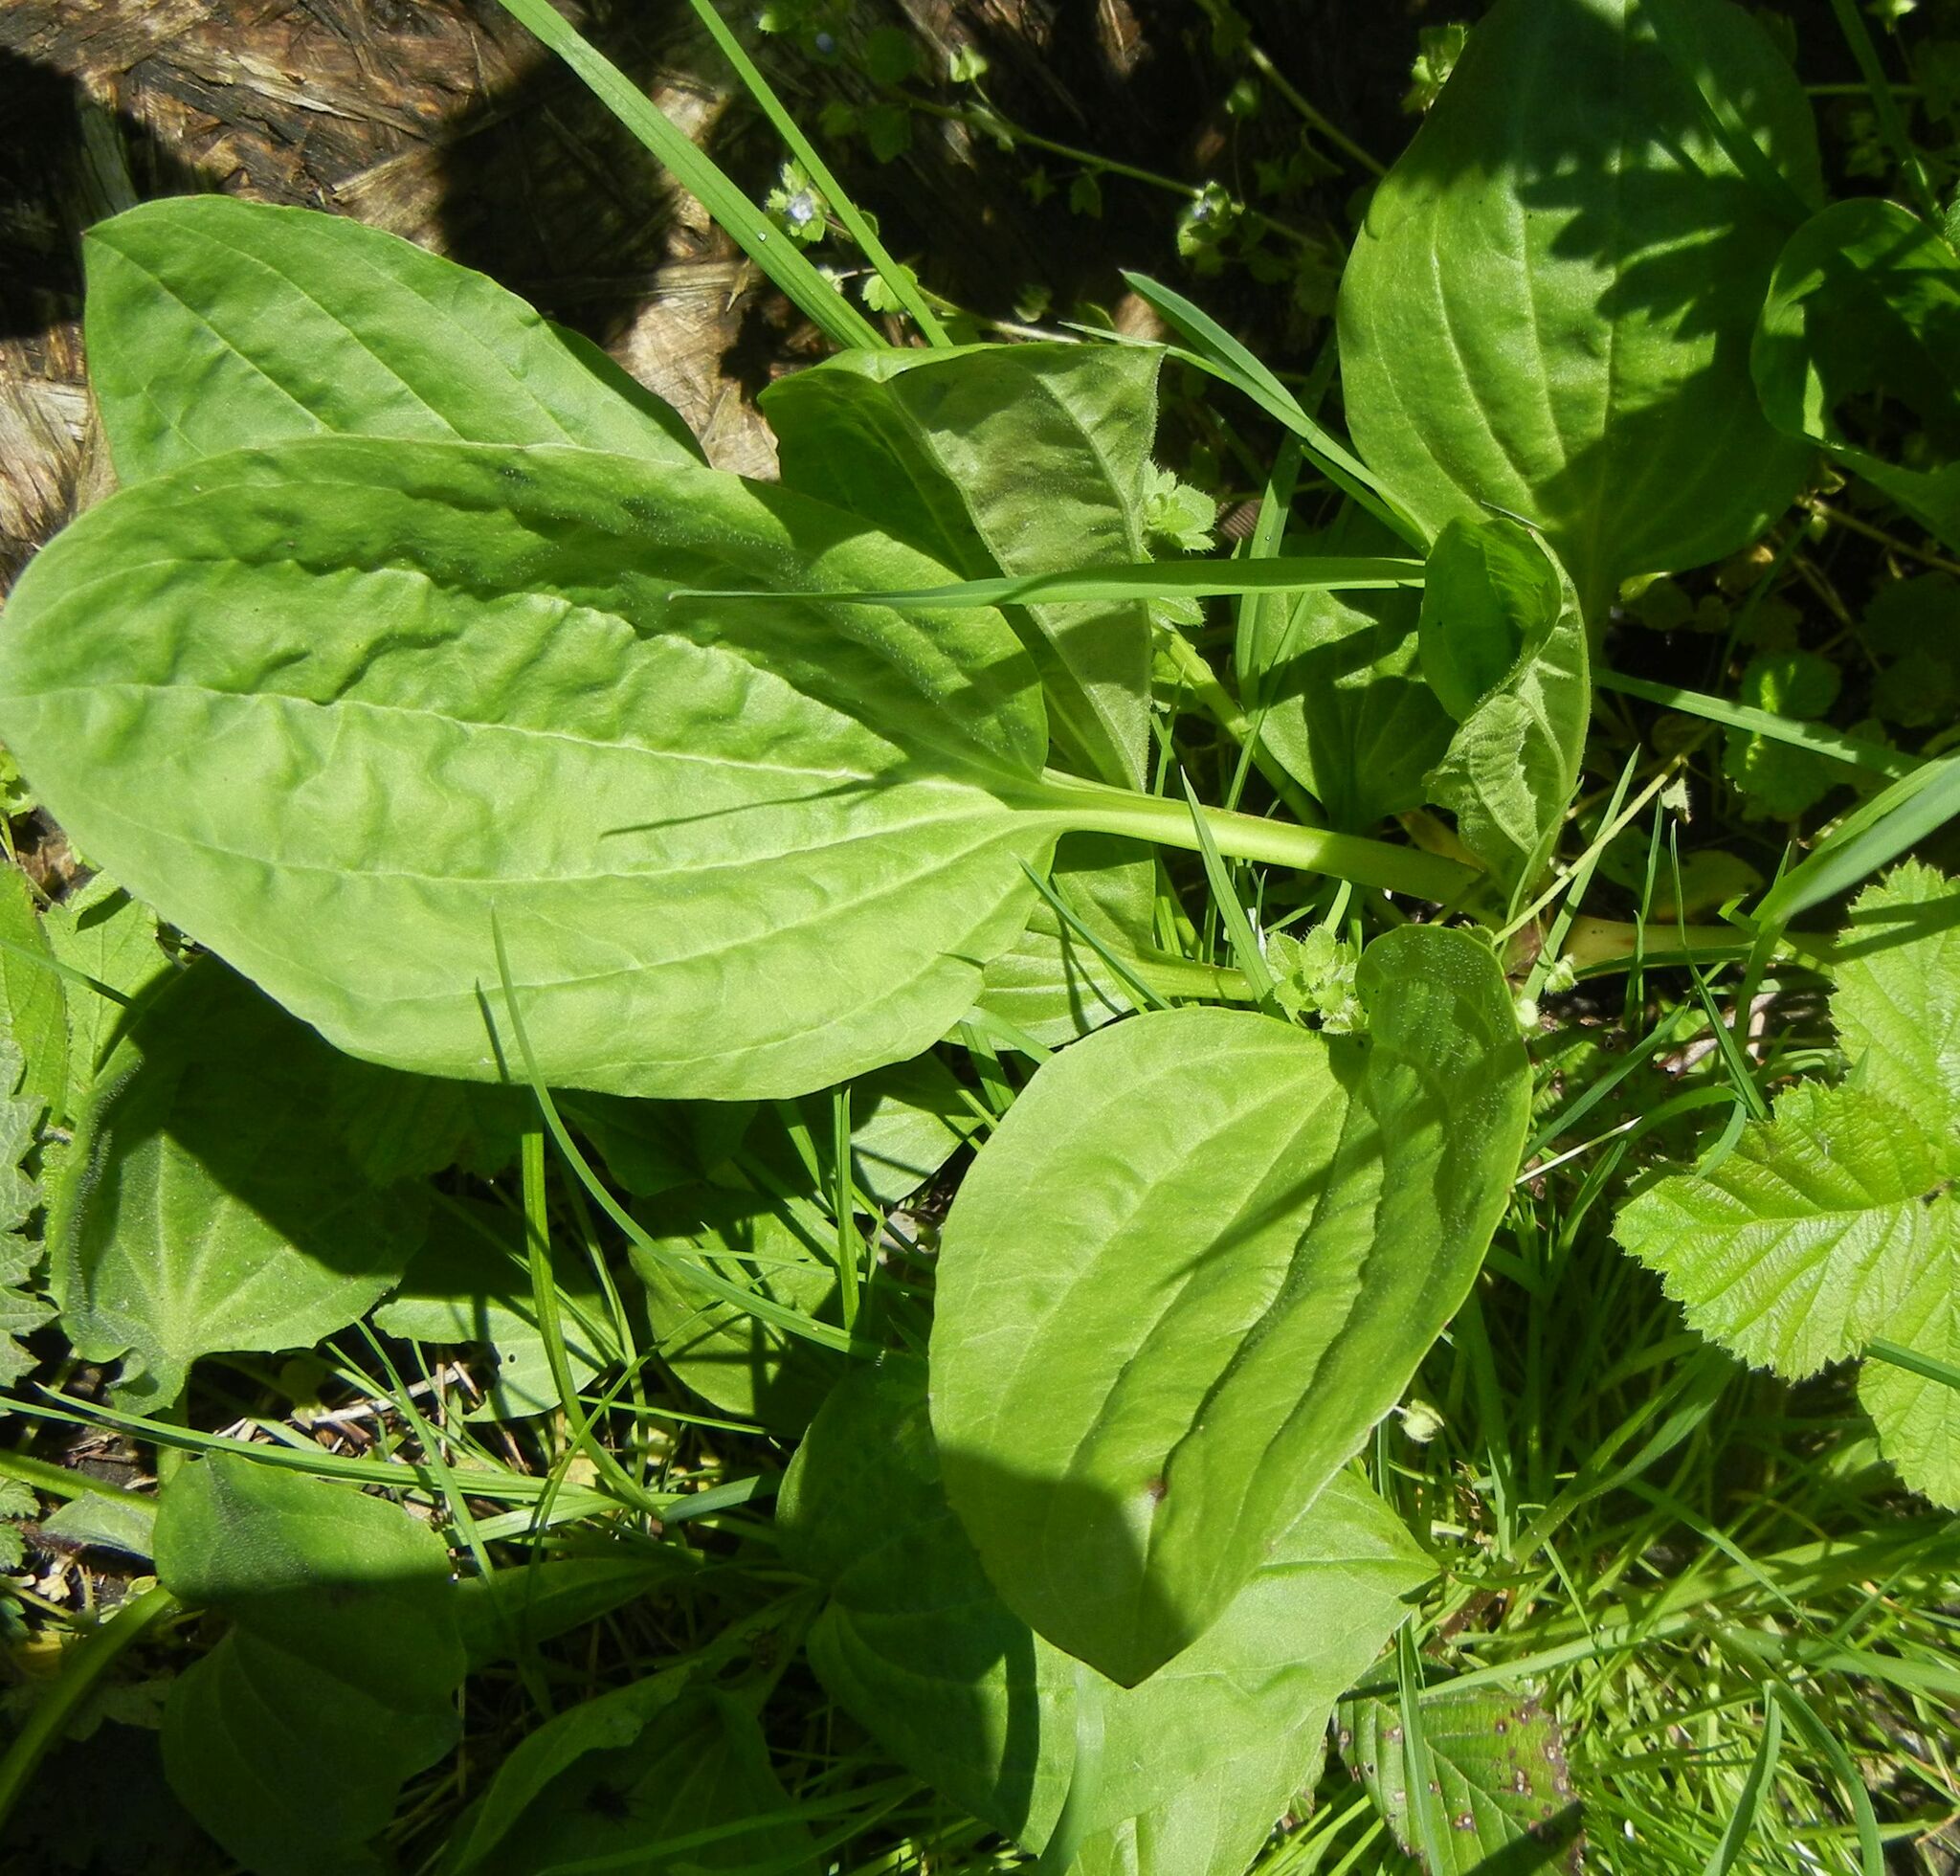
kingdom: Plantae
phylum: Tracheophyta
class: Magnoliopsida
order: Lamiales
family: Plantaginaceae
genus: Plantago
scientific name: Plantago major
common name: Common plantain
